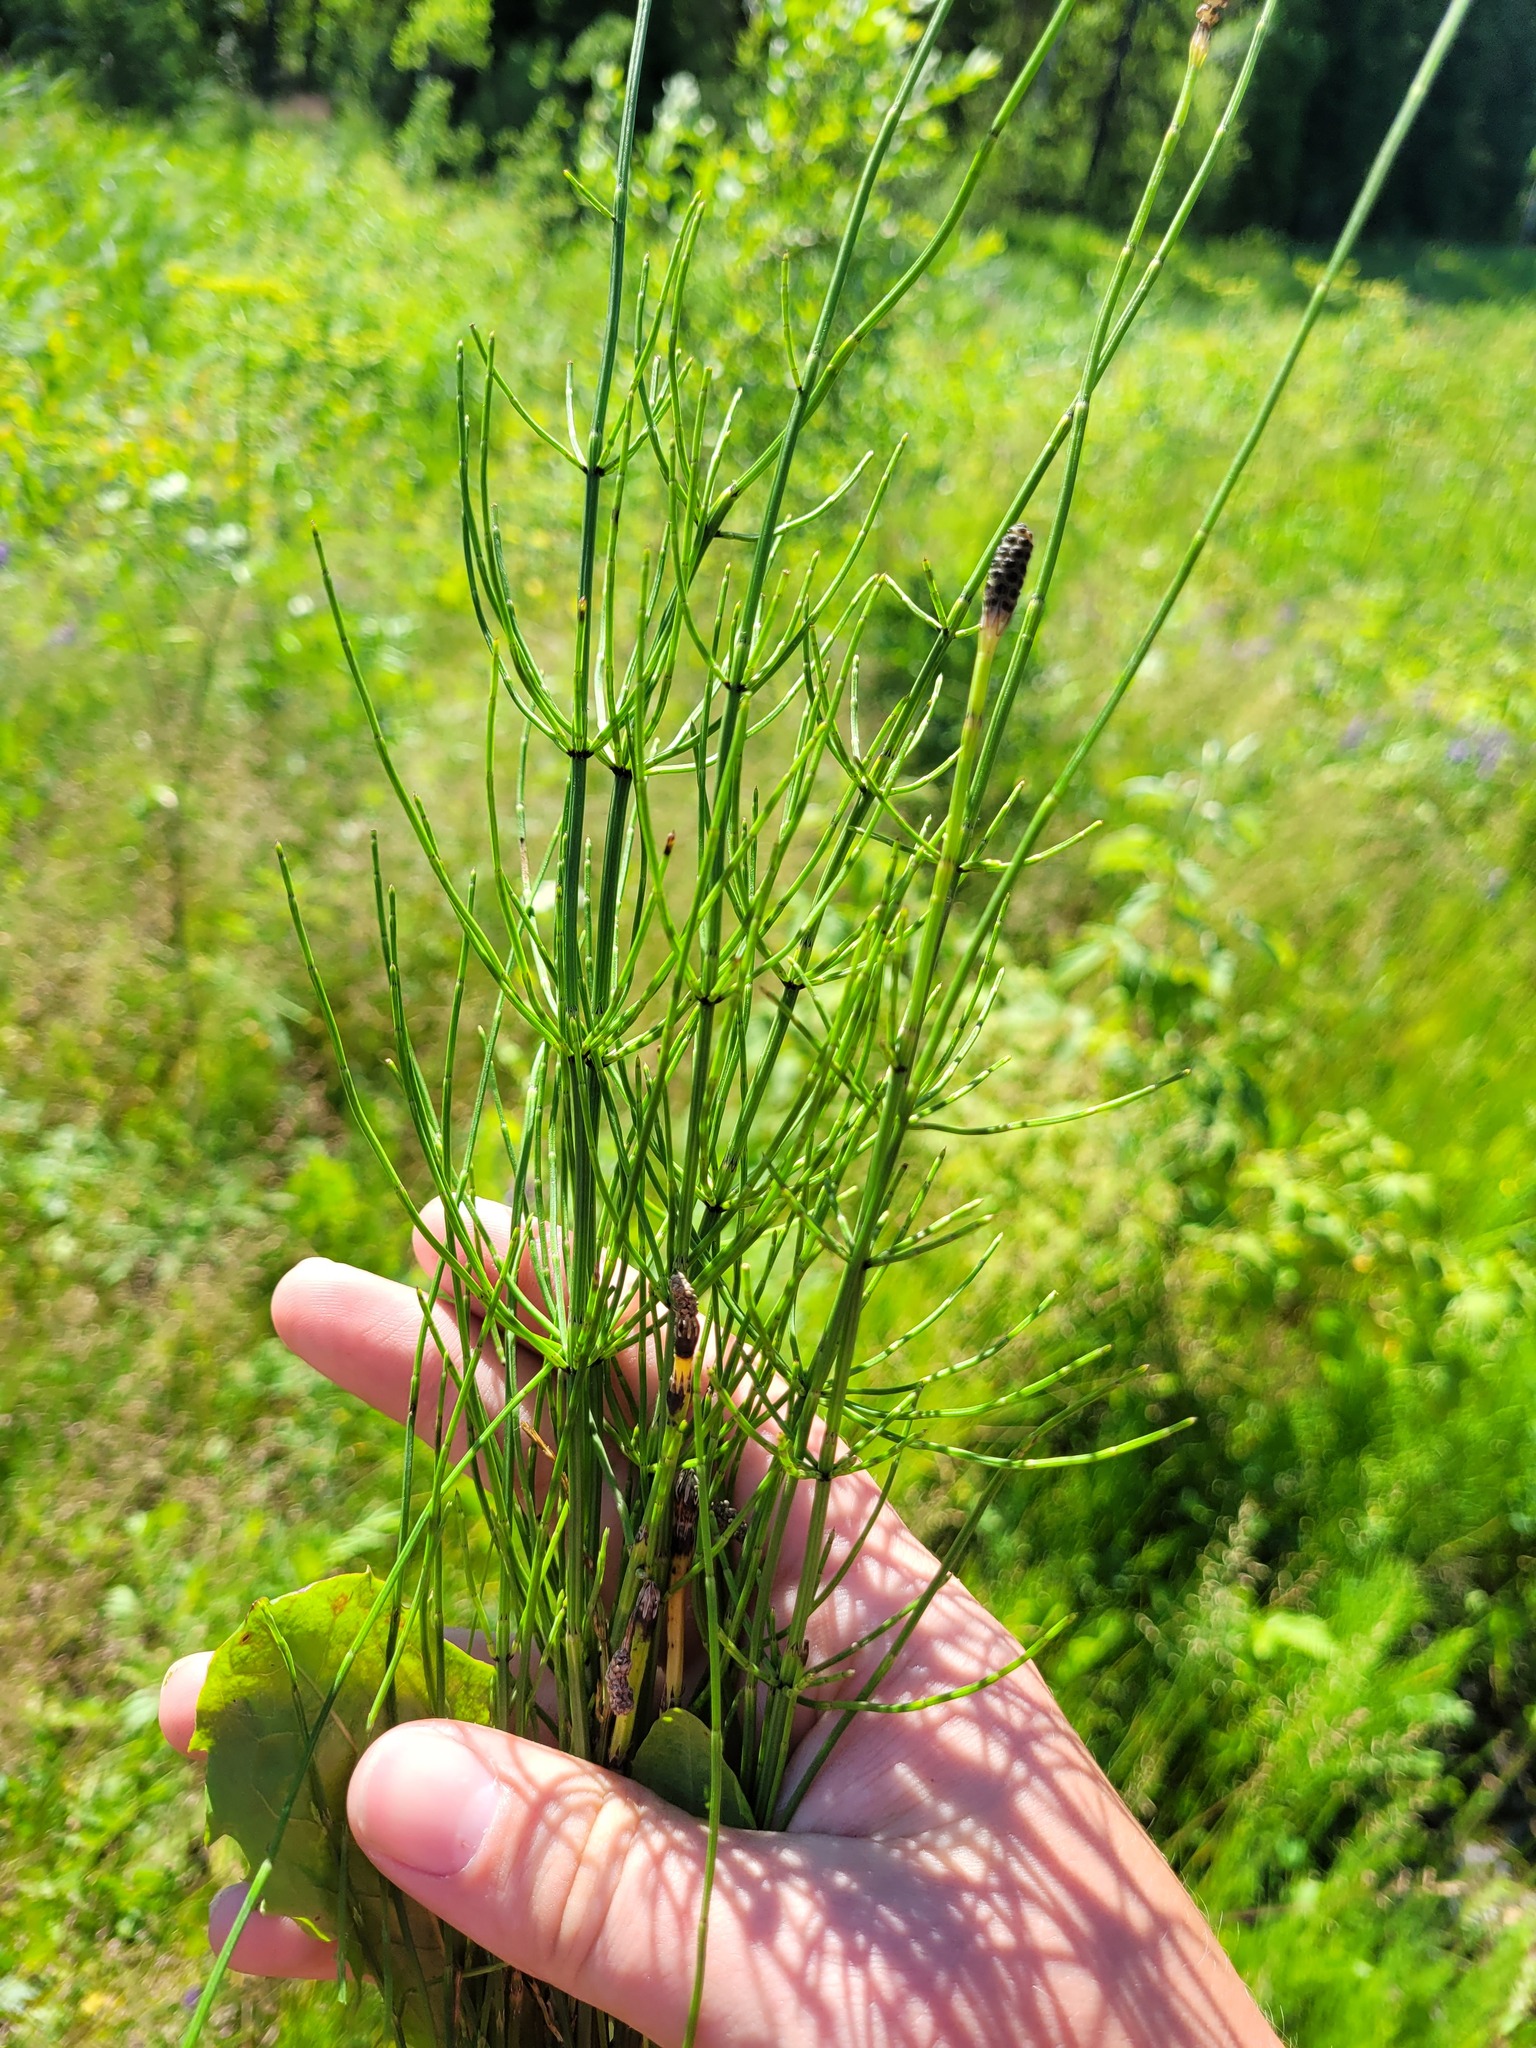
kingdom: Plantae
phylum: Tracheophyta
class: Polypodiopsida
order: Equisetales
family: Equisetaceae
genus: Equisetum
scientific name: Equisetum palustre
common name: Marsh horsetail
